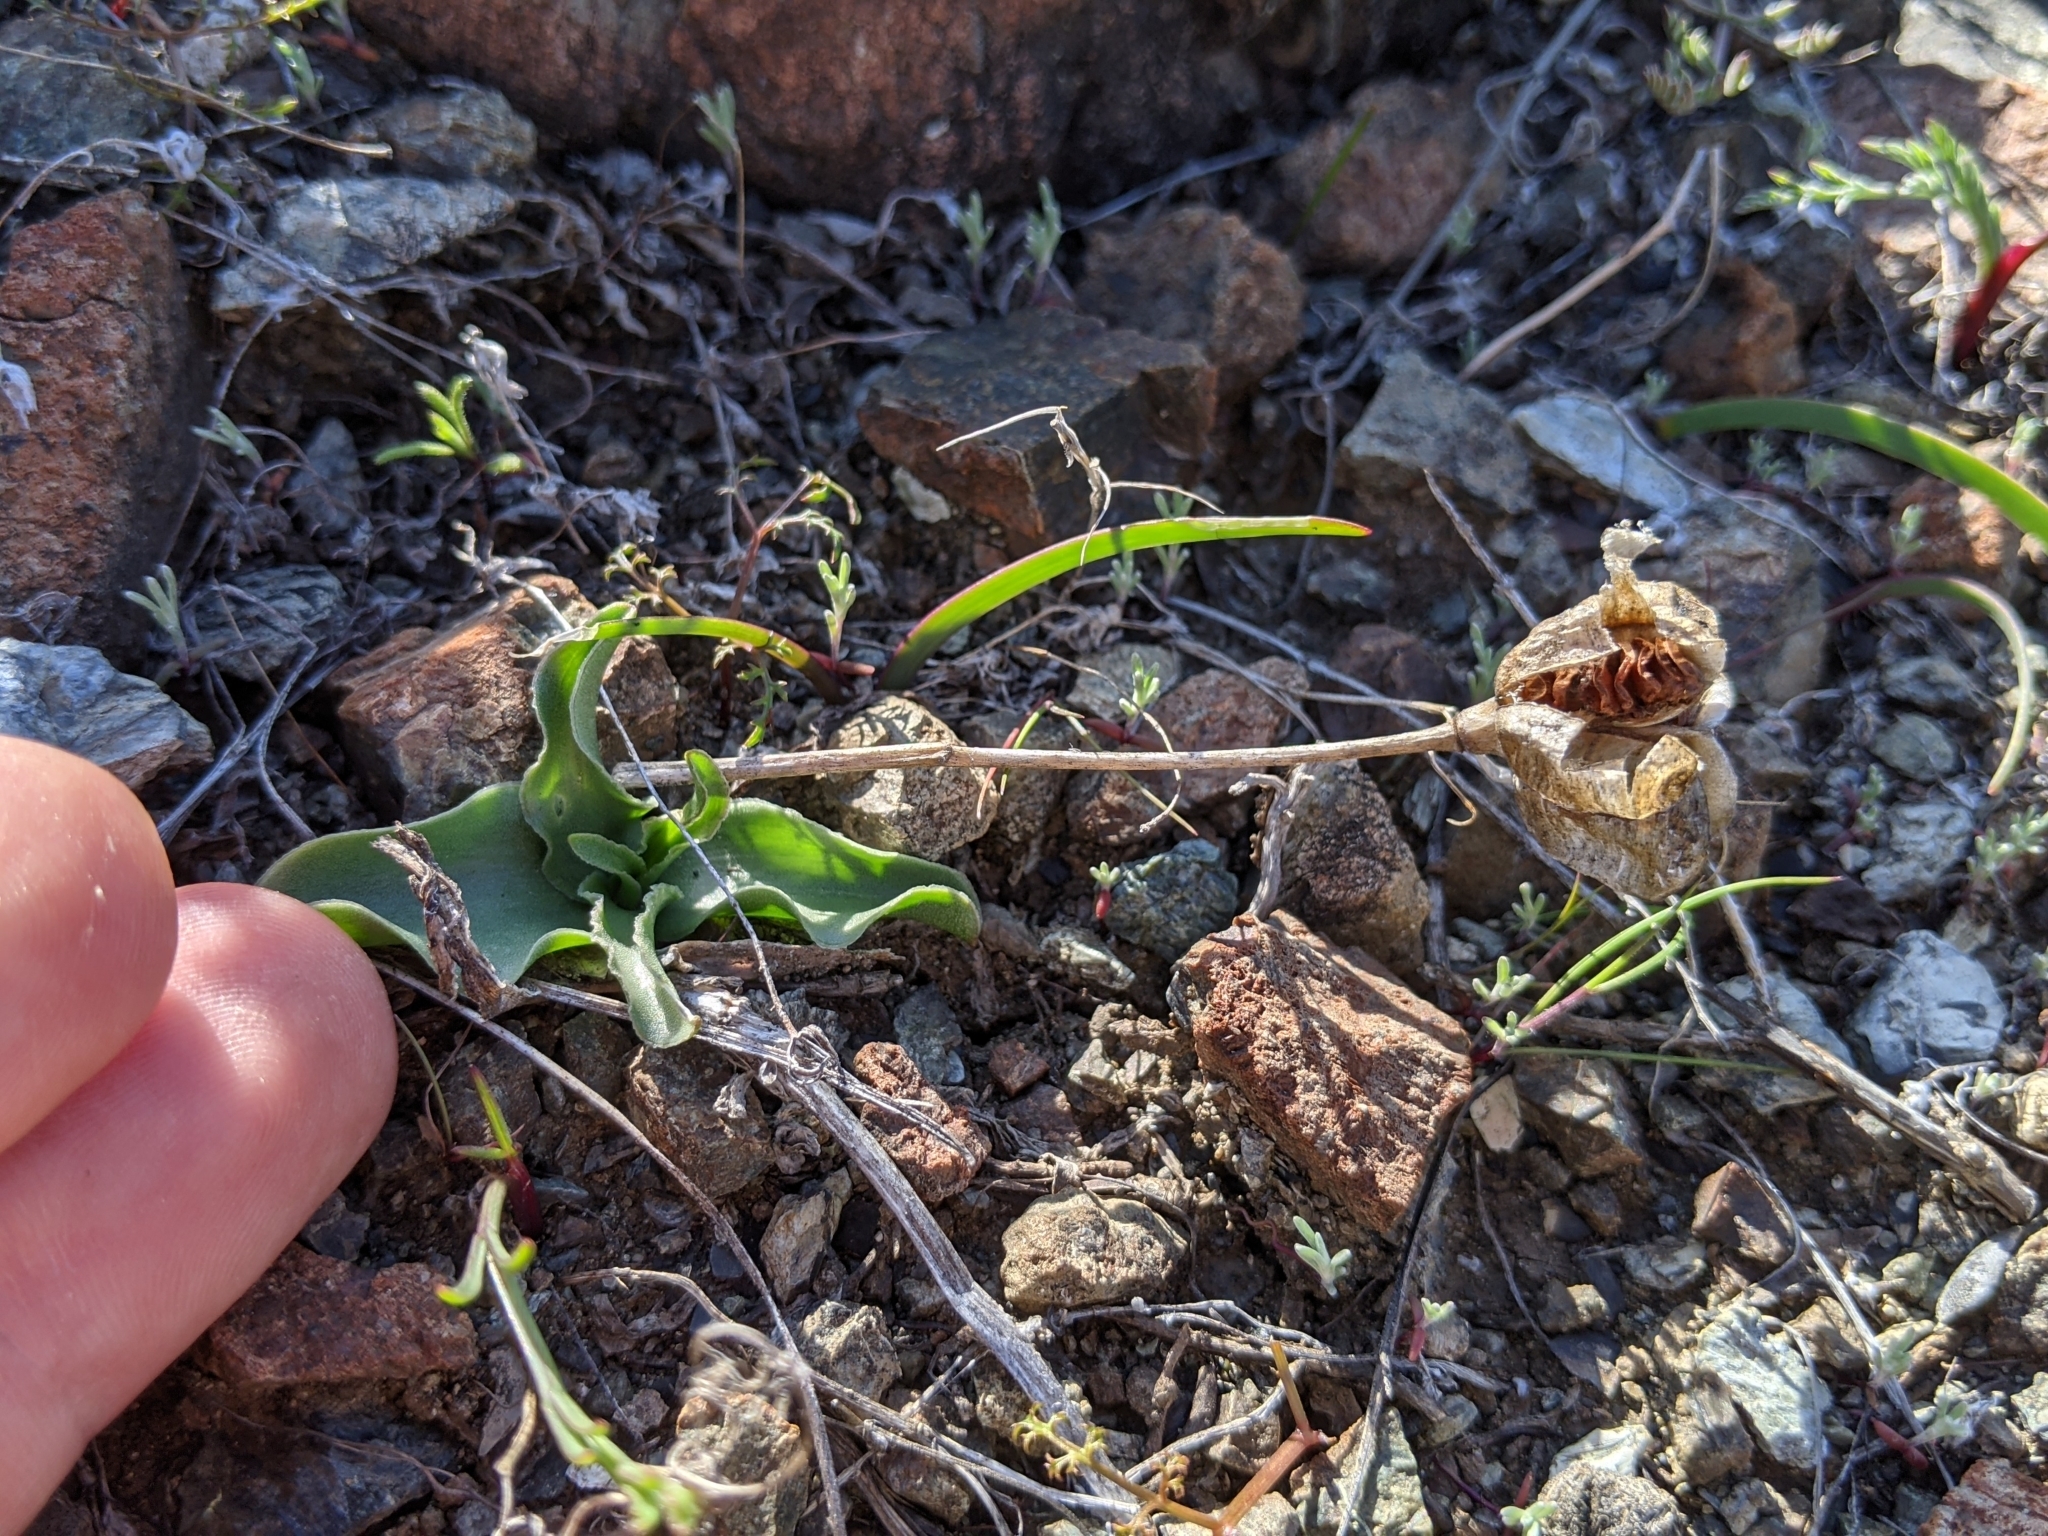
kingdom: Plantae
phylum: Tracheophyta
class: Liliopsida
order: Liliales
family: Liliaceae
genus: Fritillaria
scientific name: Fritillaria purdyi
